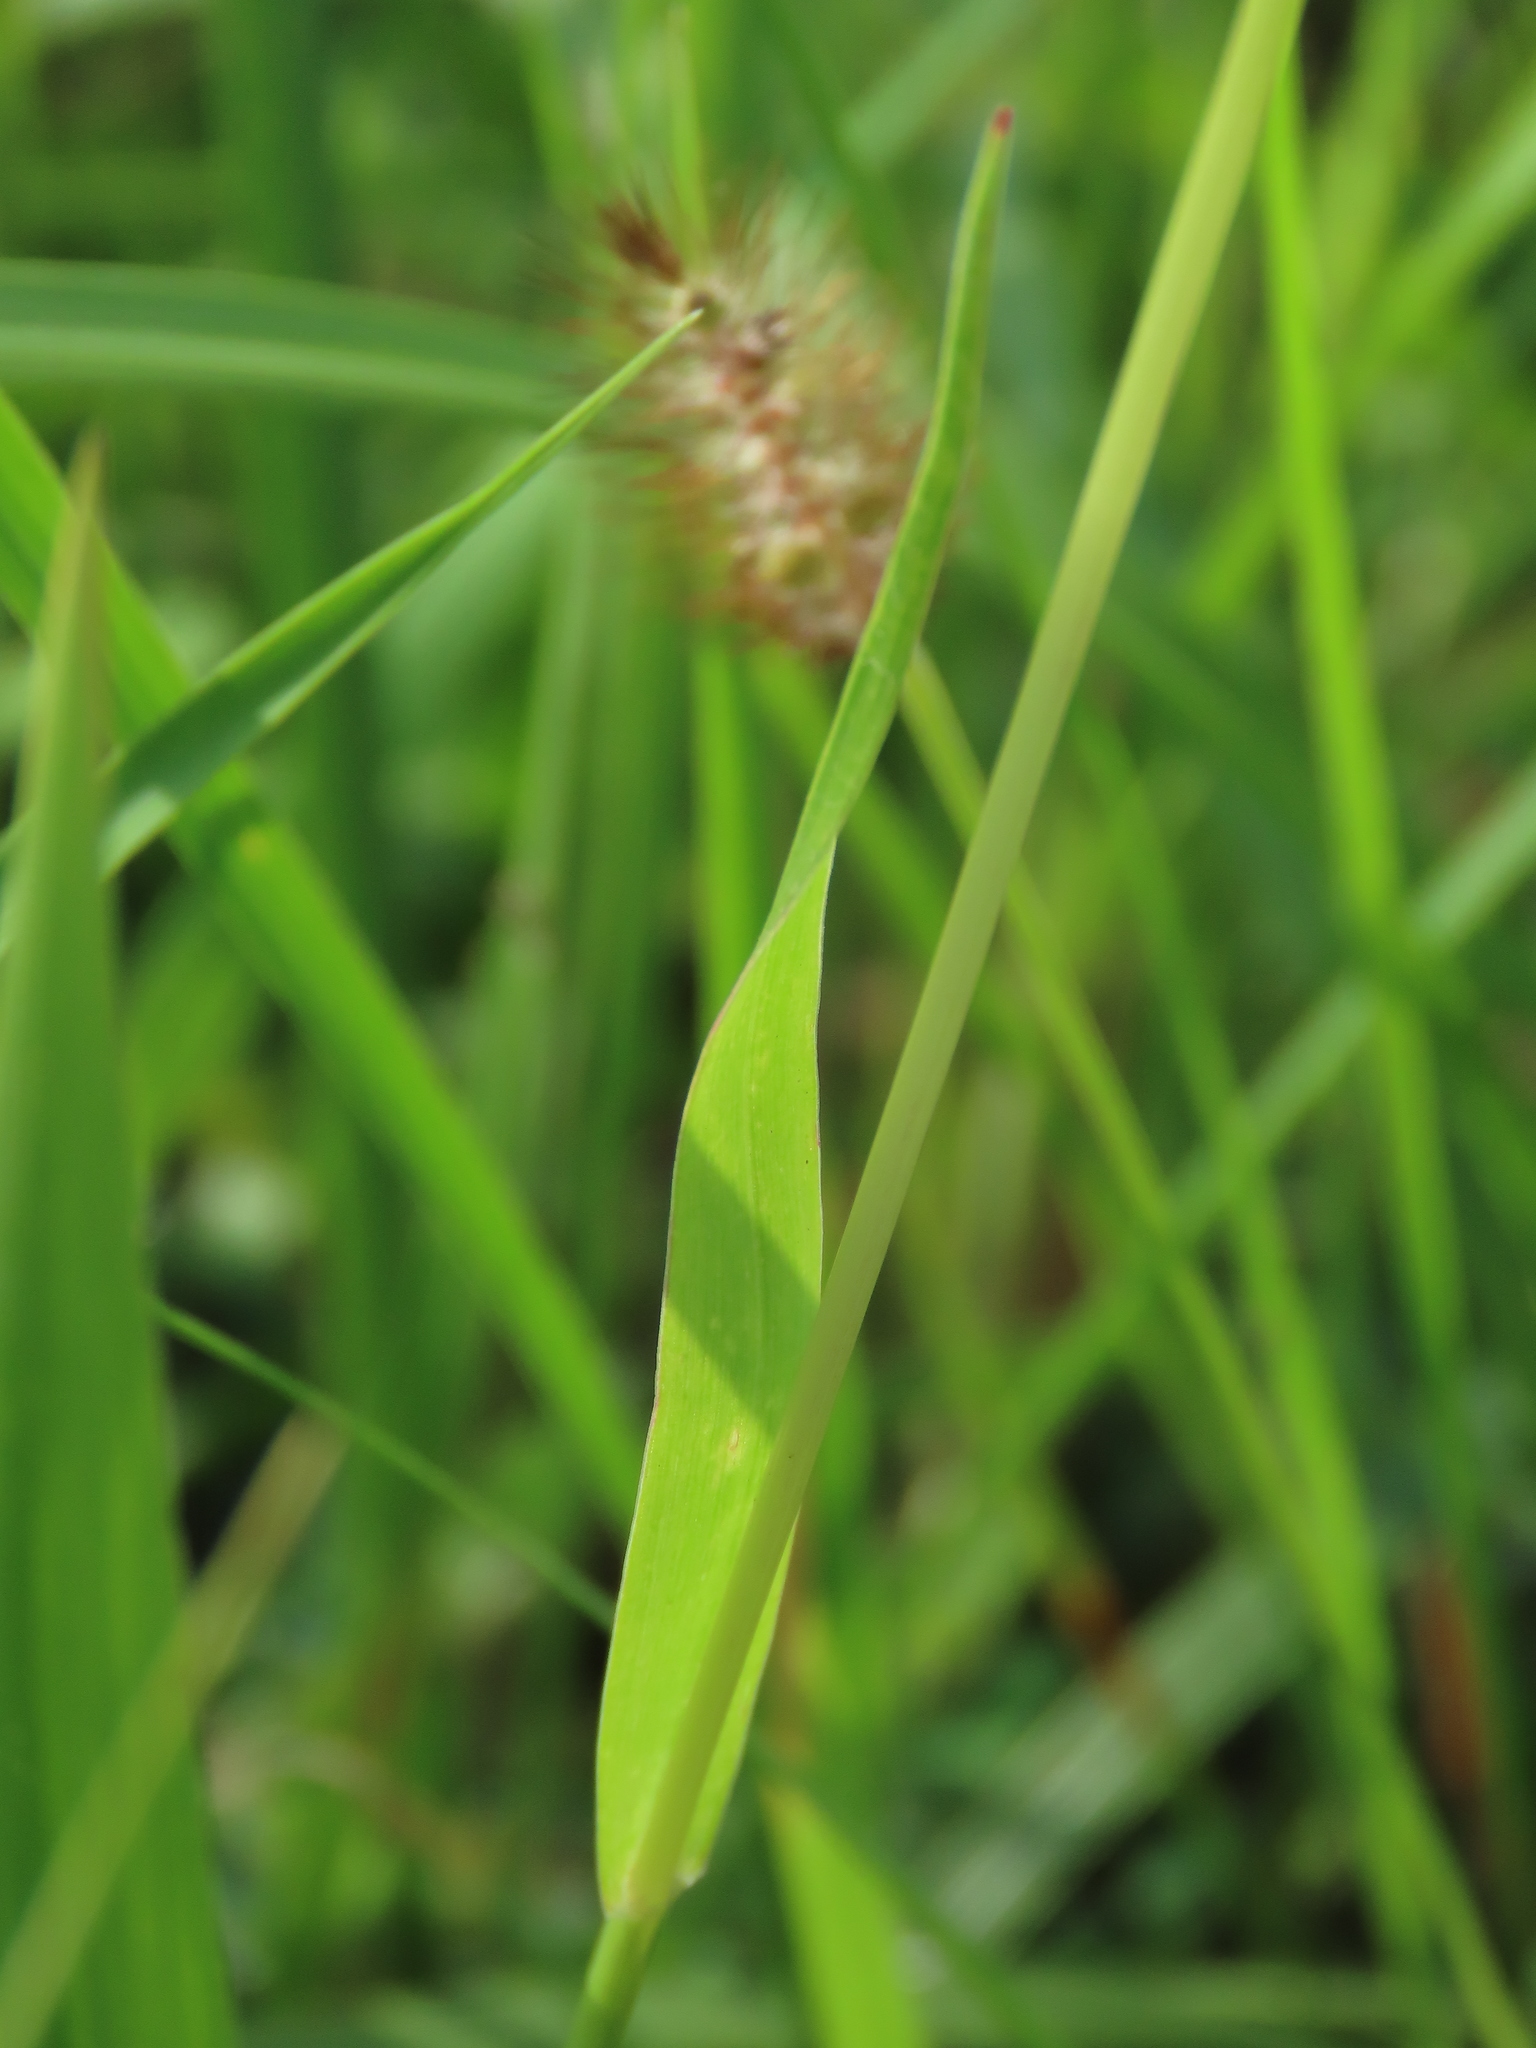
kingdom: Plantae
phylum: Tracheophyta
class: Liliopsida
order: Poales
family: Poaceae
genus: Setaria
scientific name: Setaria parviflora
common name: Knotroot bristle-grass
